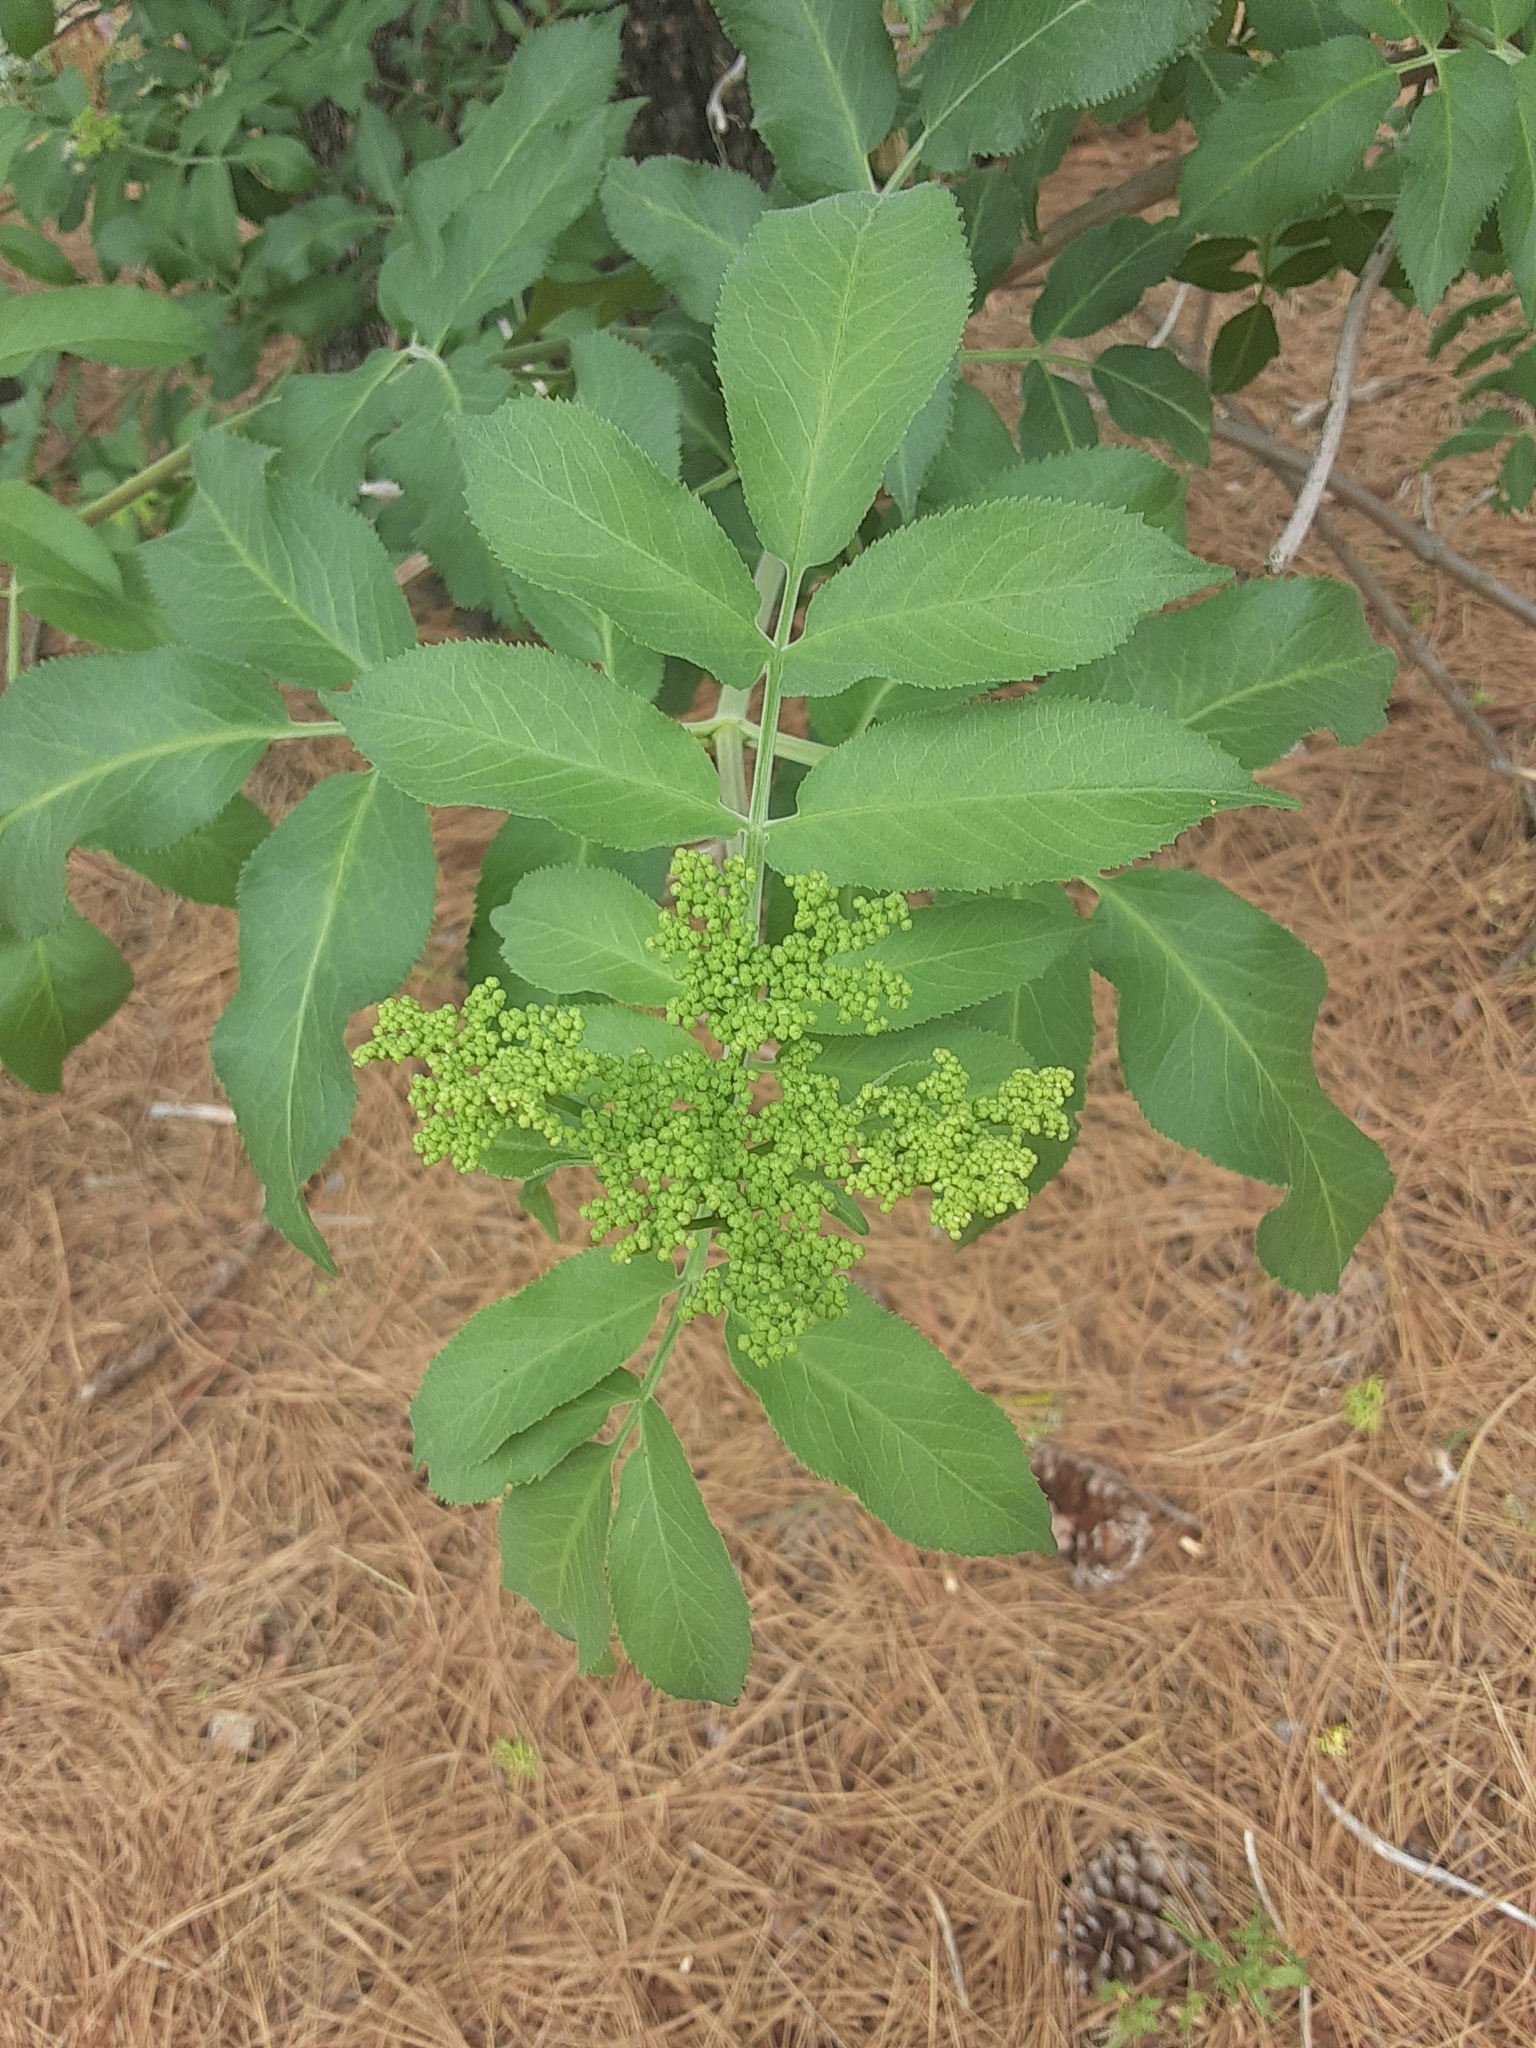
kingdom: Plantae
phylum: Tracheophyta
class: Magnoliopsida
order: Dipsacales
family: Viburnaceae
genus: Sambucus
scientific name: Sambucus cerulea
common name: Blue elder
